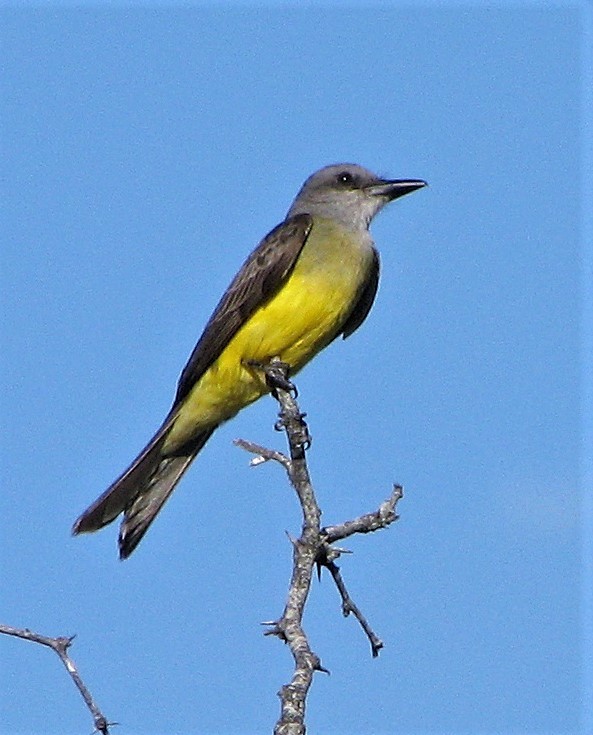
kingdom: Animalia
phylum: Chordata
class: Aves
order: Passeriformes
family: Tyrannidae
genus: Tyrannus
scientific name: Tyrannus melancholicus
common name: Tropical kingbird
